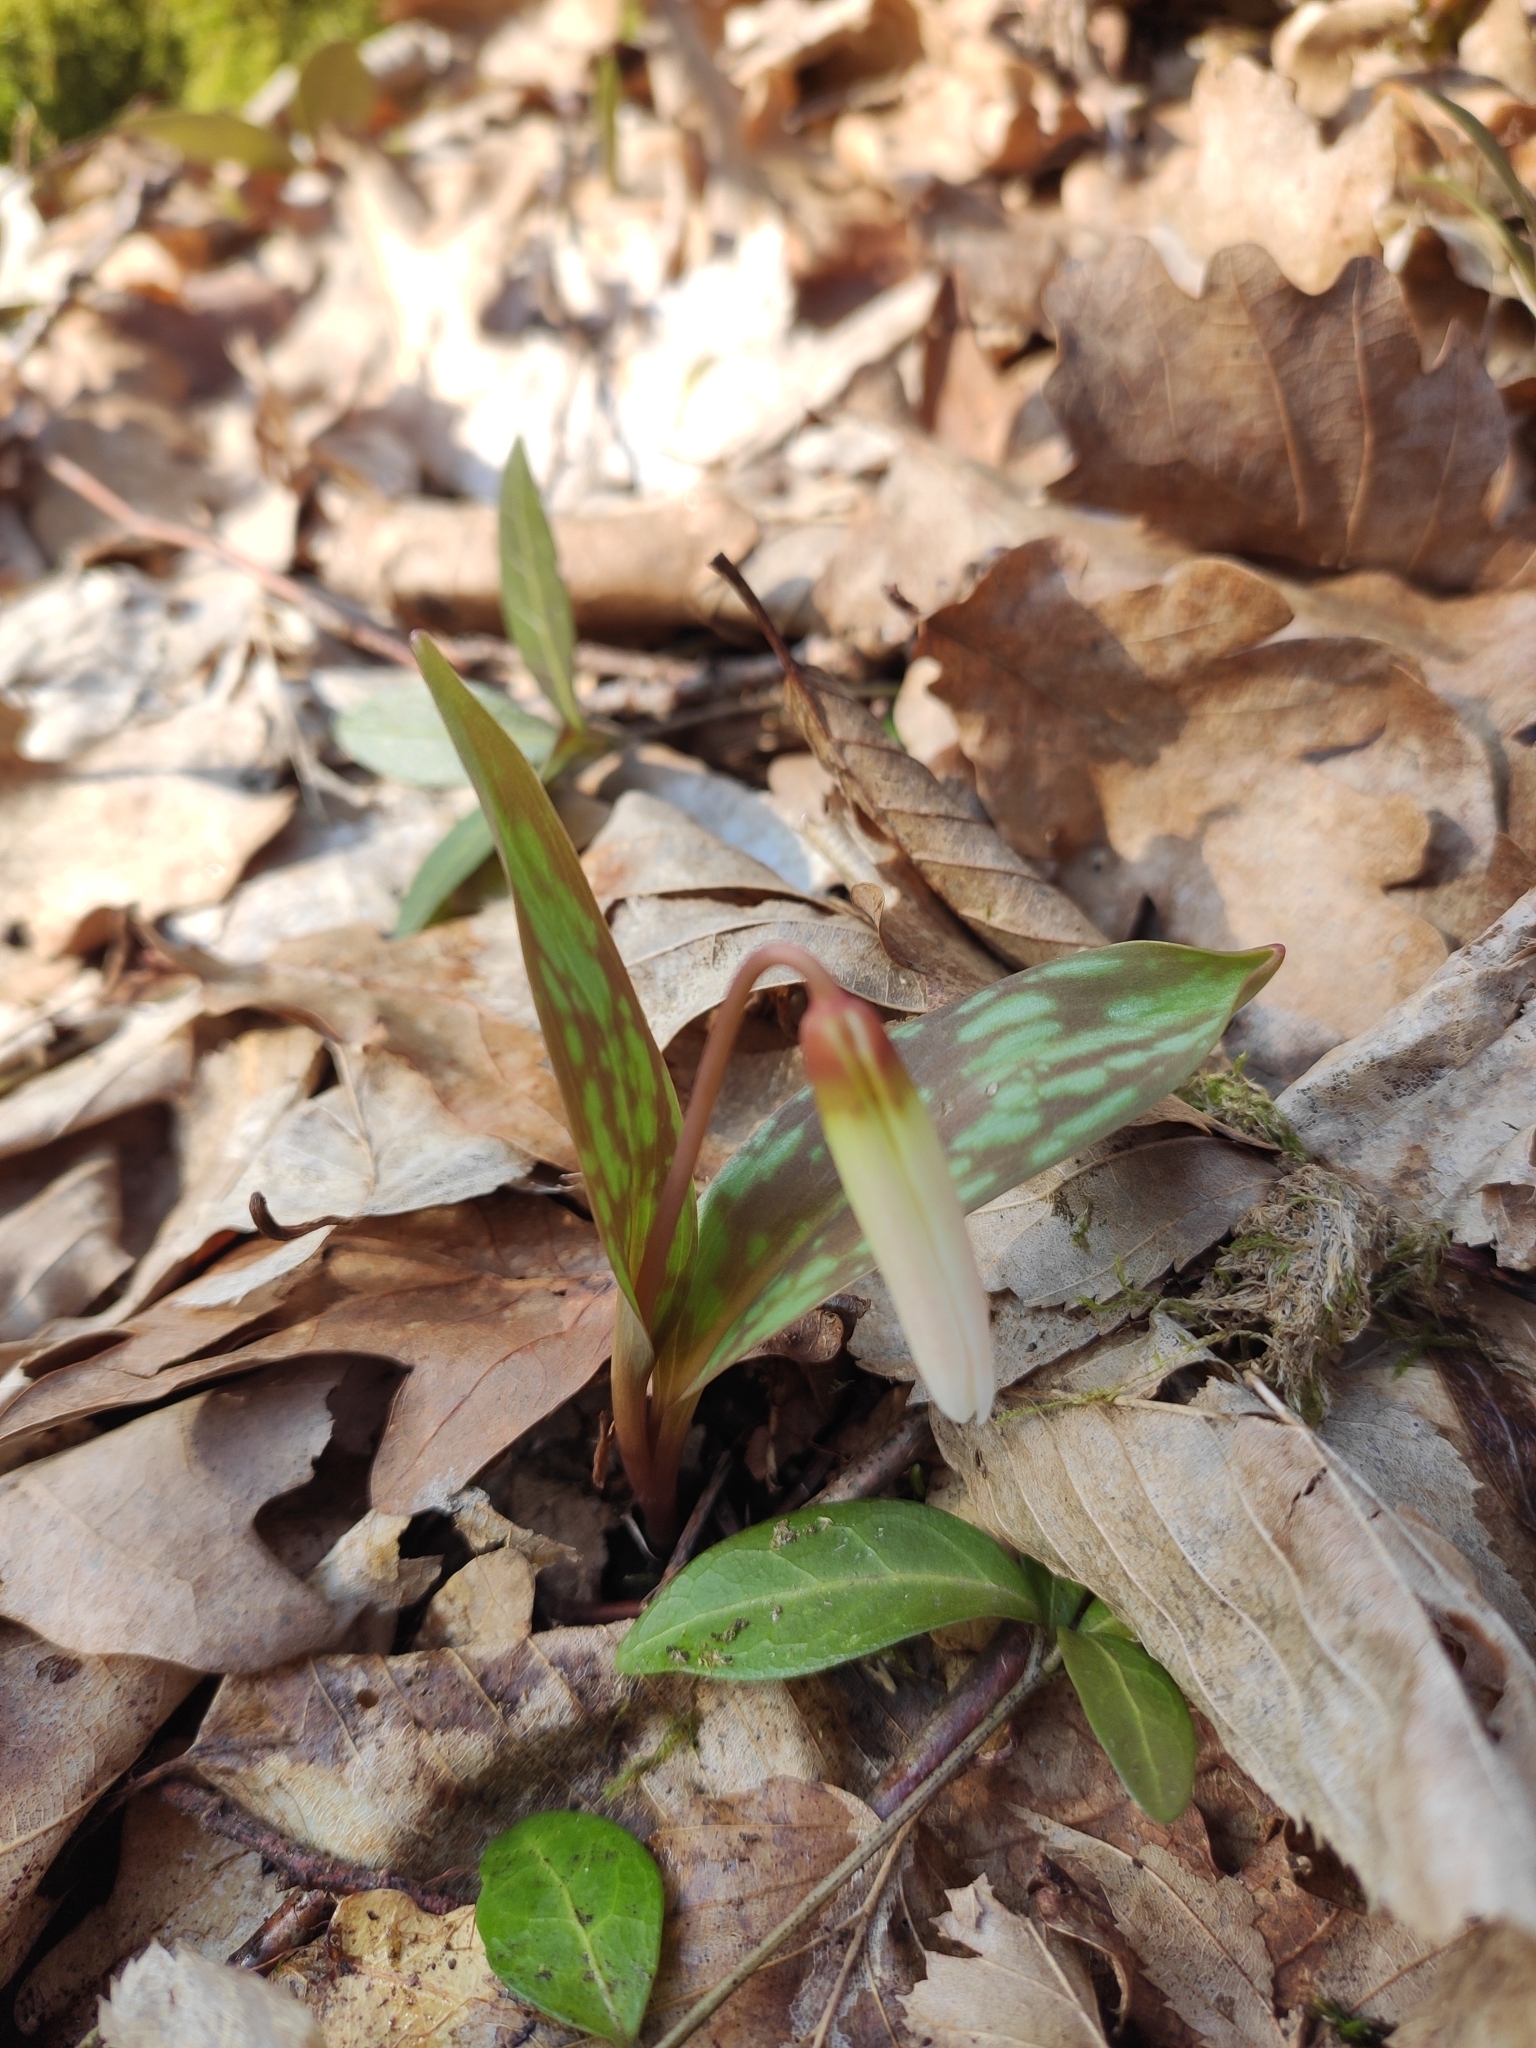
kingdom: Plantae
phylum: Tracheophyta
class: Liliopsida
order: Liliales
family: Liliaceae
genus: Erythronium
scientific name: Erythronium caucasicum
